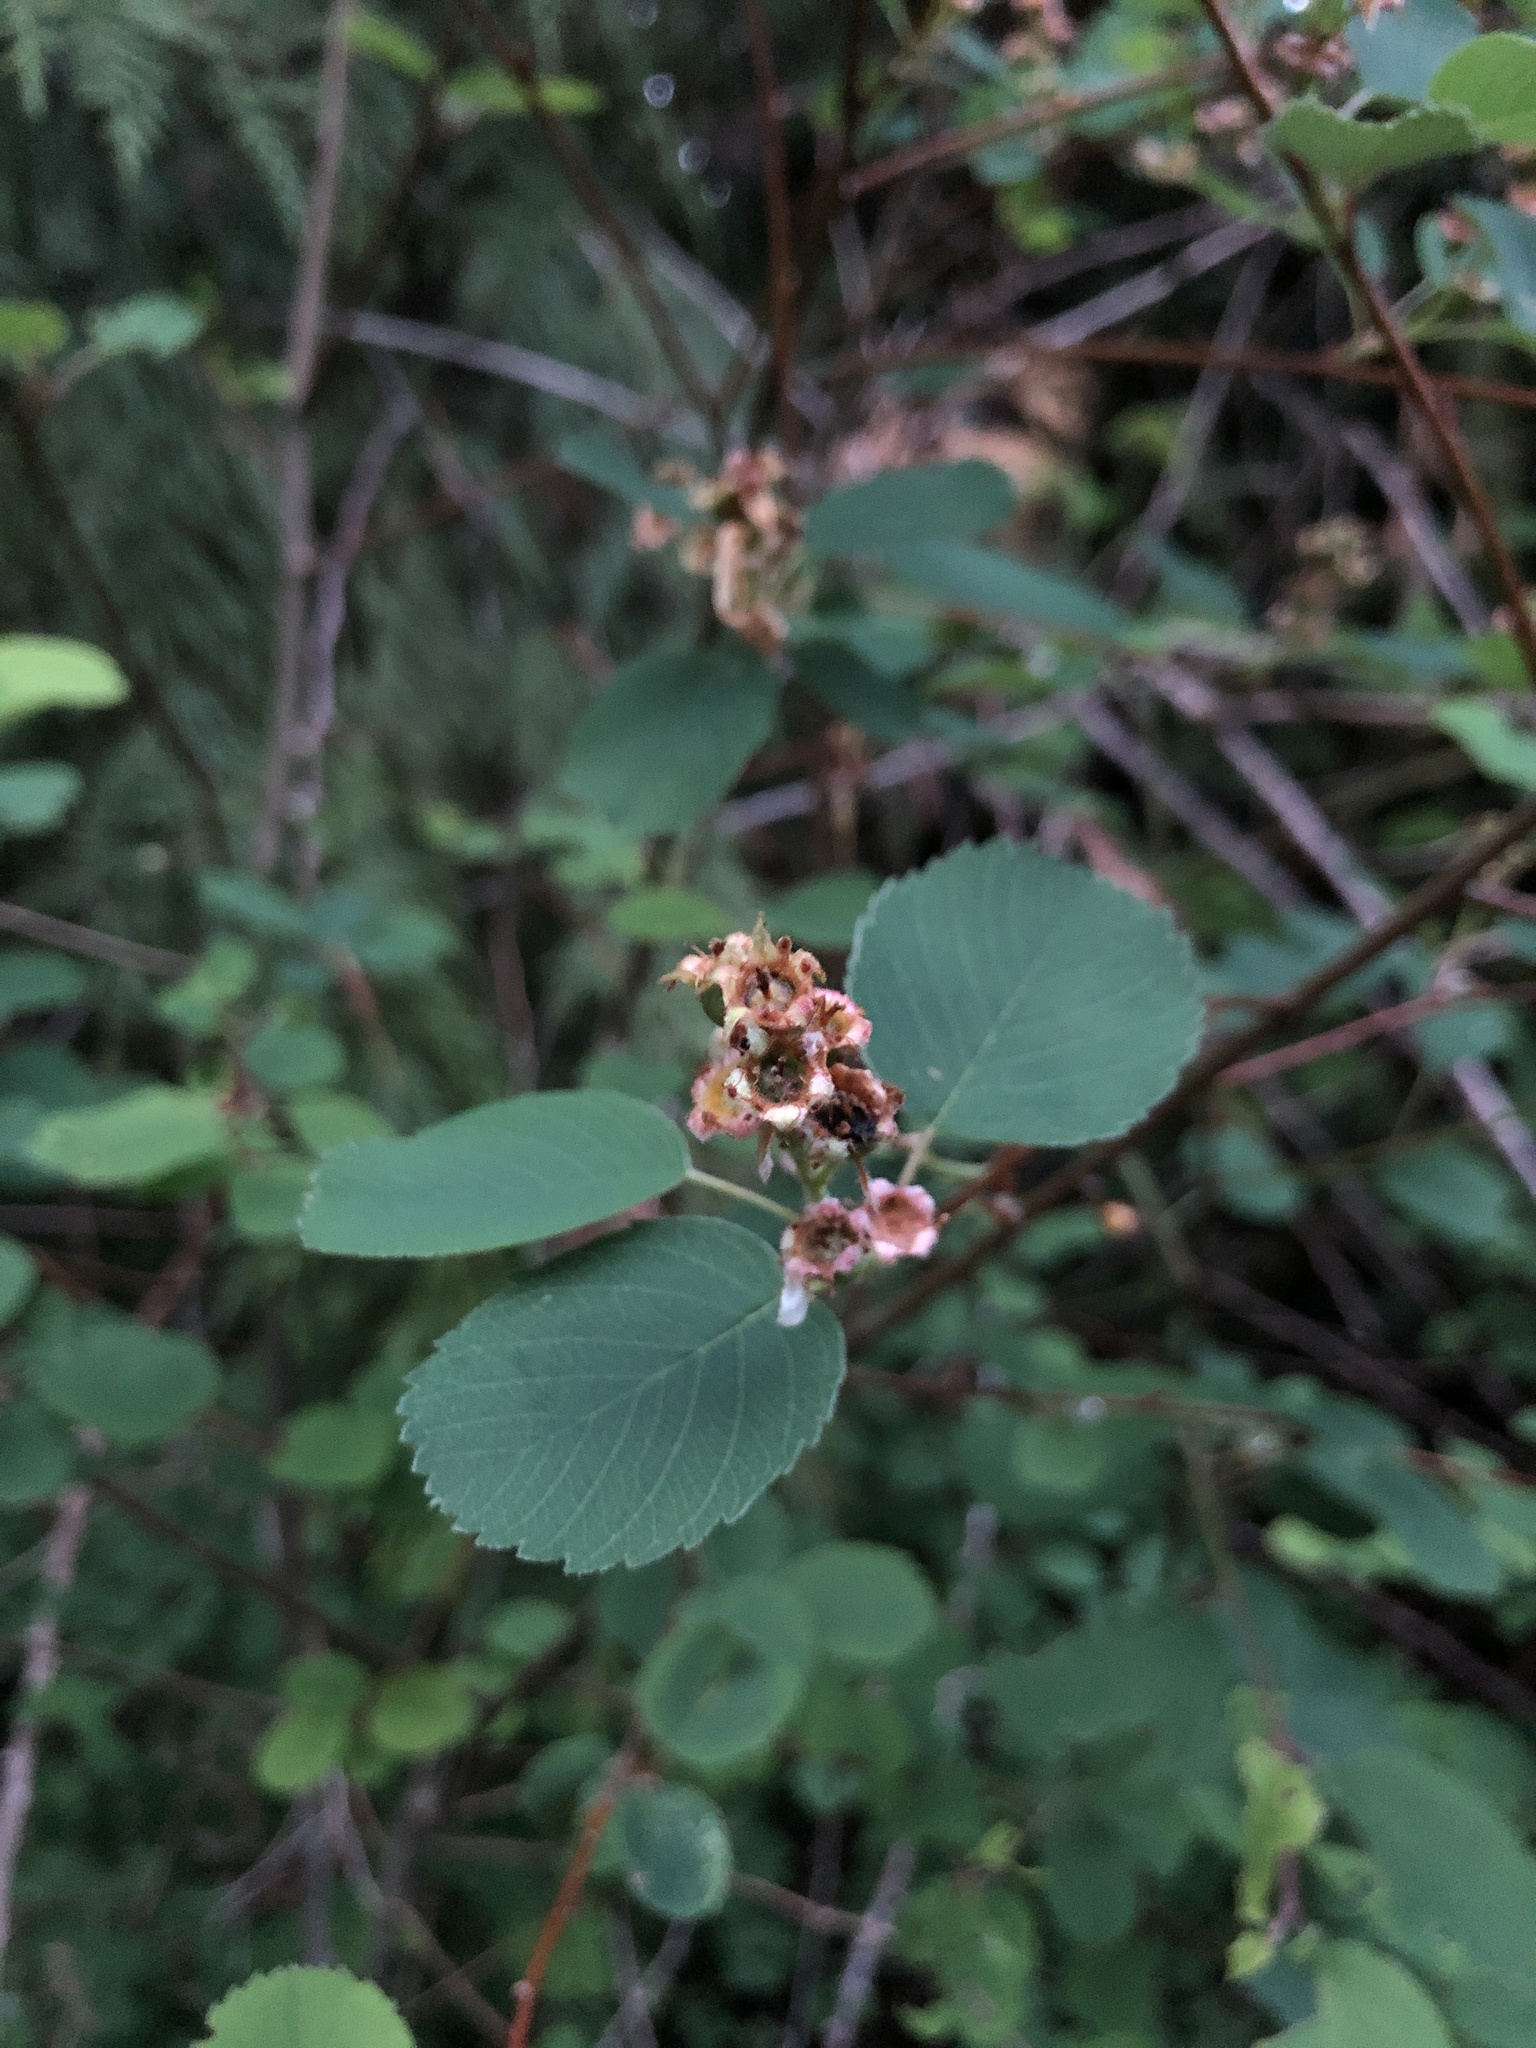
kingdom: Plantae
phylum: Tracheophyta
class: Magnoliopsida
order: Rosales
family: Rosaceae
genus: Amelanchier
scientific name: Amelanchier alnifolia
